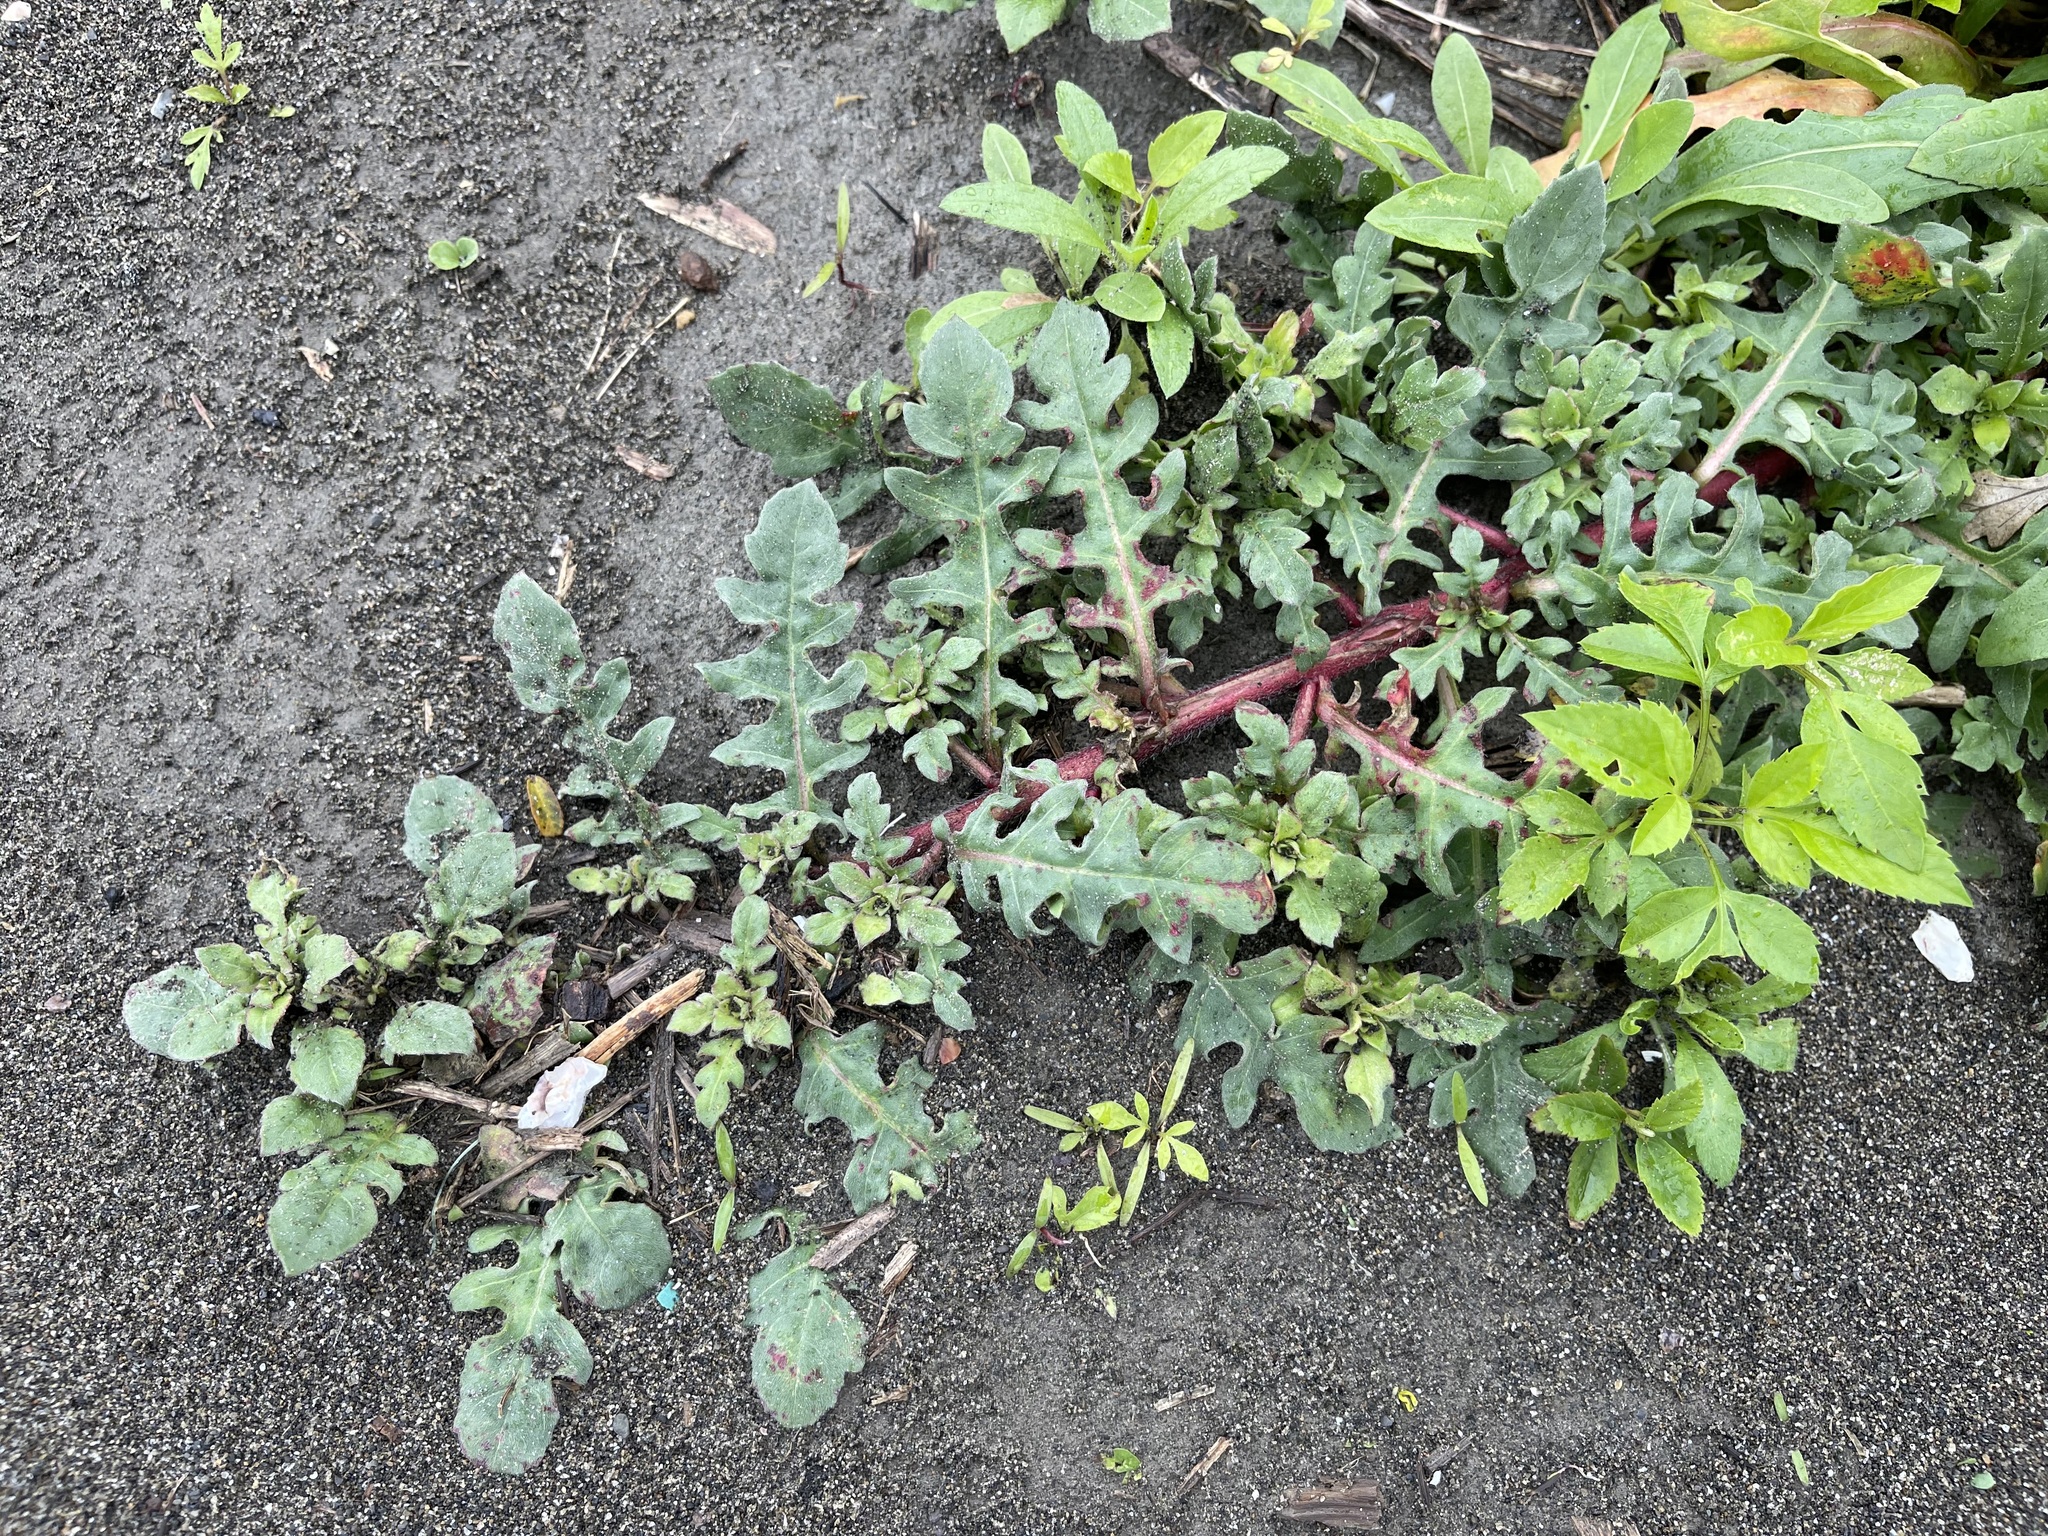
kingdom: Plantae
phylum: Tracheophyta
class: Magnoliopsida
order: Myrtales
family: Onagraceae
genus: Oenothera
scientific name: Oenothera laciniata
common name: Cut-leaved evening-primrose
